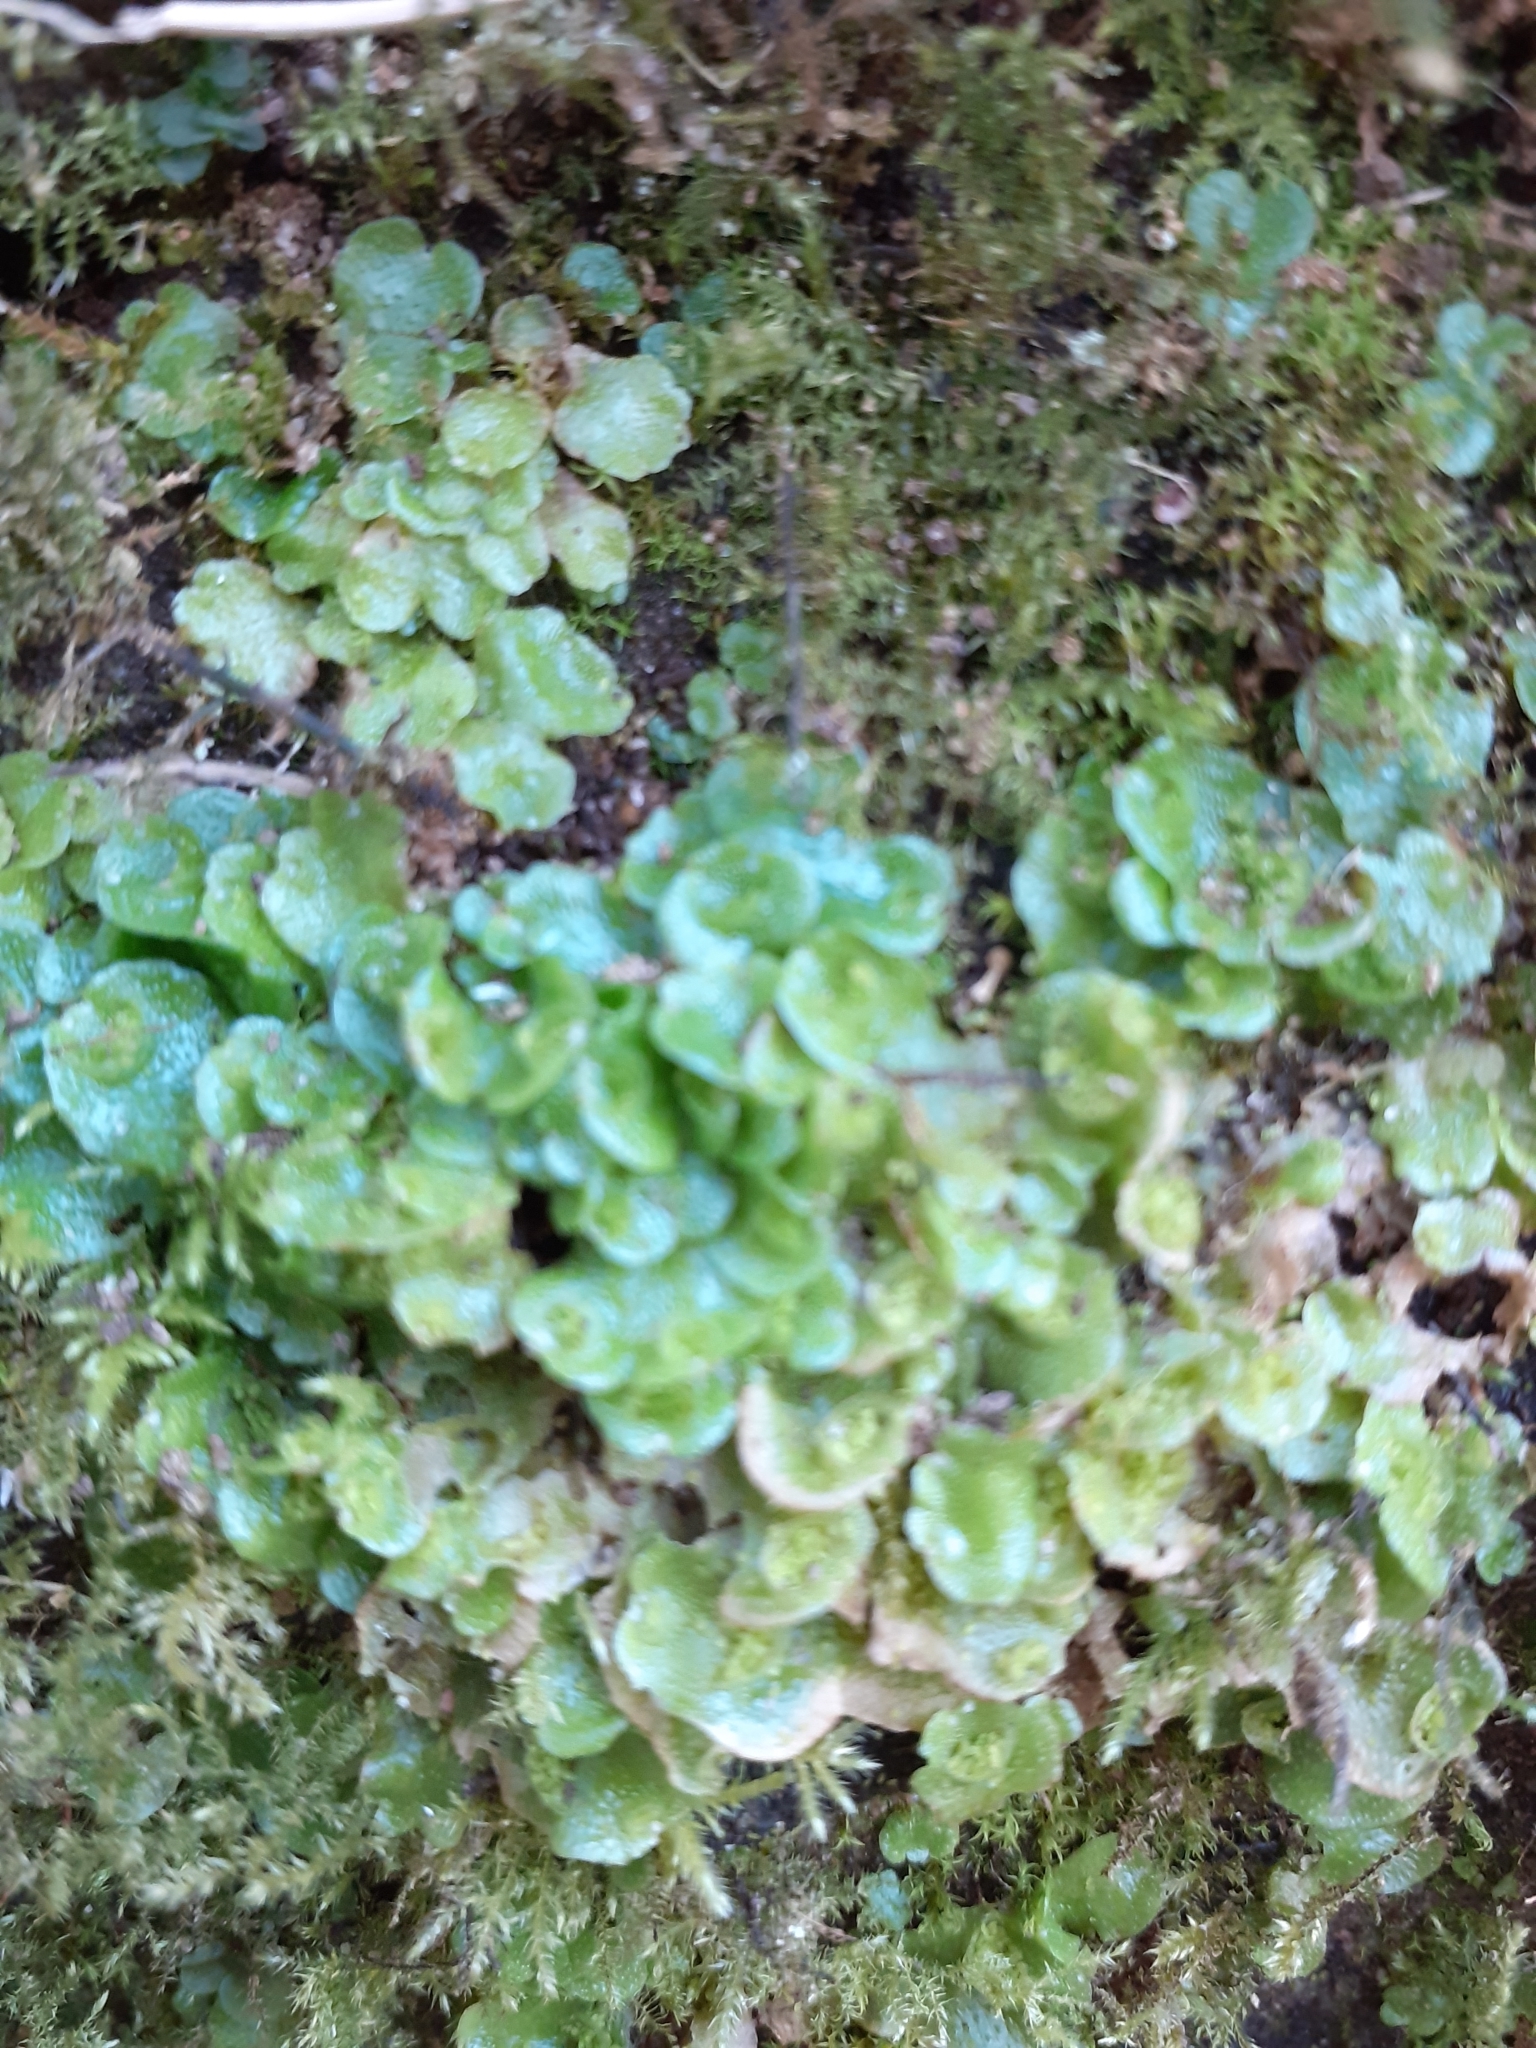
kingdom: Plantae
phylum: Marchantiophyta
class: Marchantiopsida
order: Lunulariales
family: Lunulariaceae
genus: Lunularia
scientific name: Lunularia cruciata
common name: Crescent-cup liverwort
